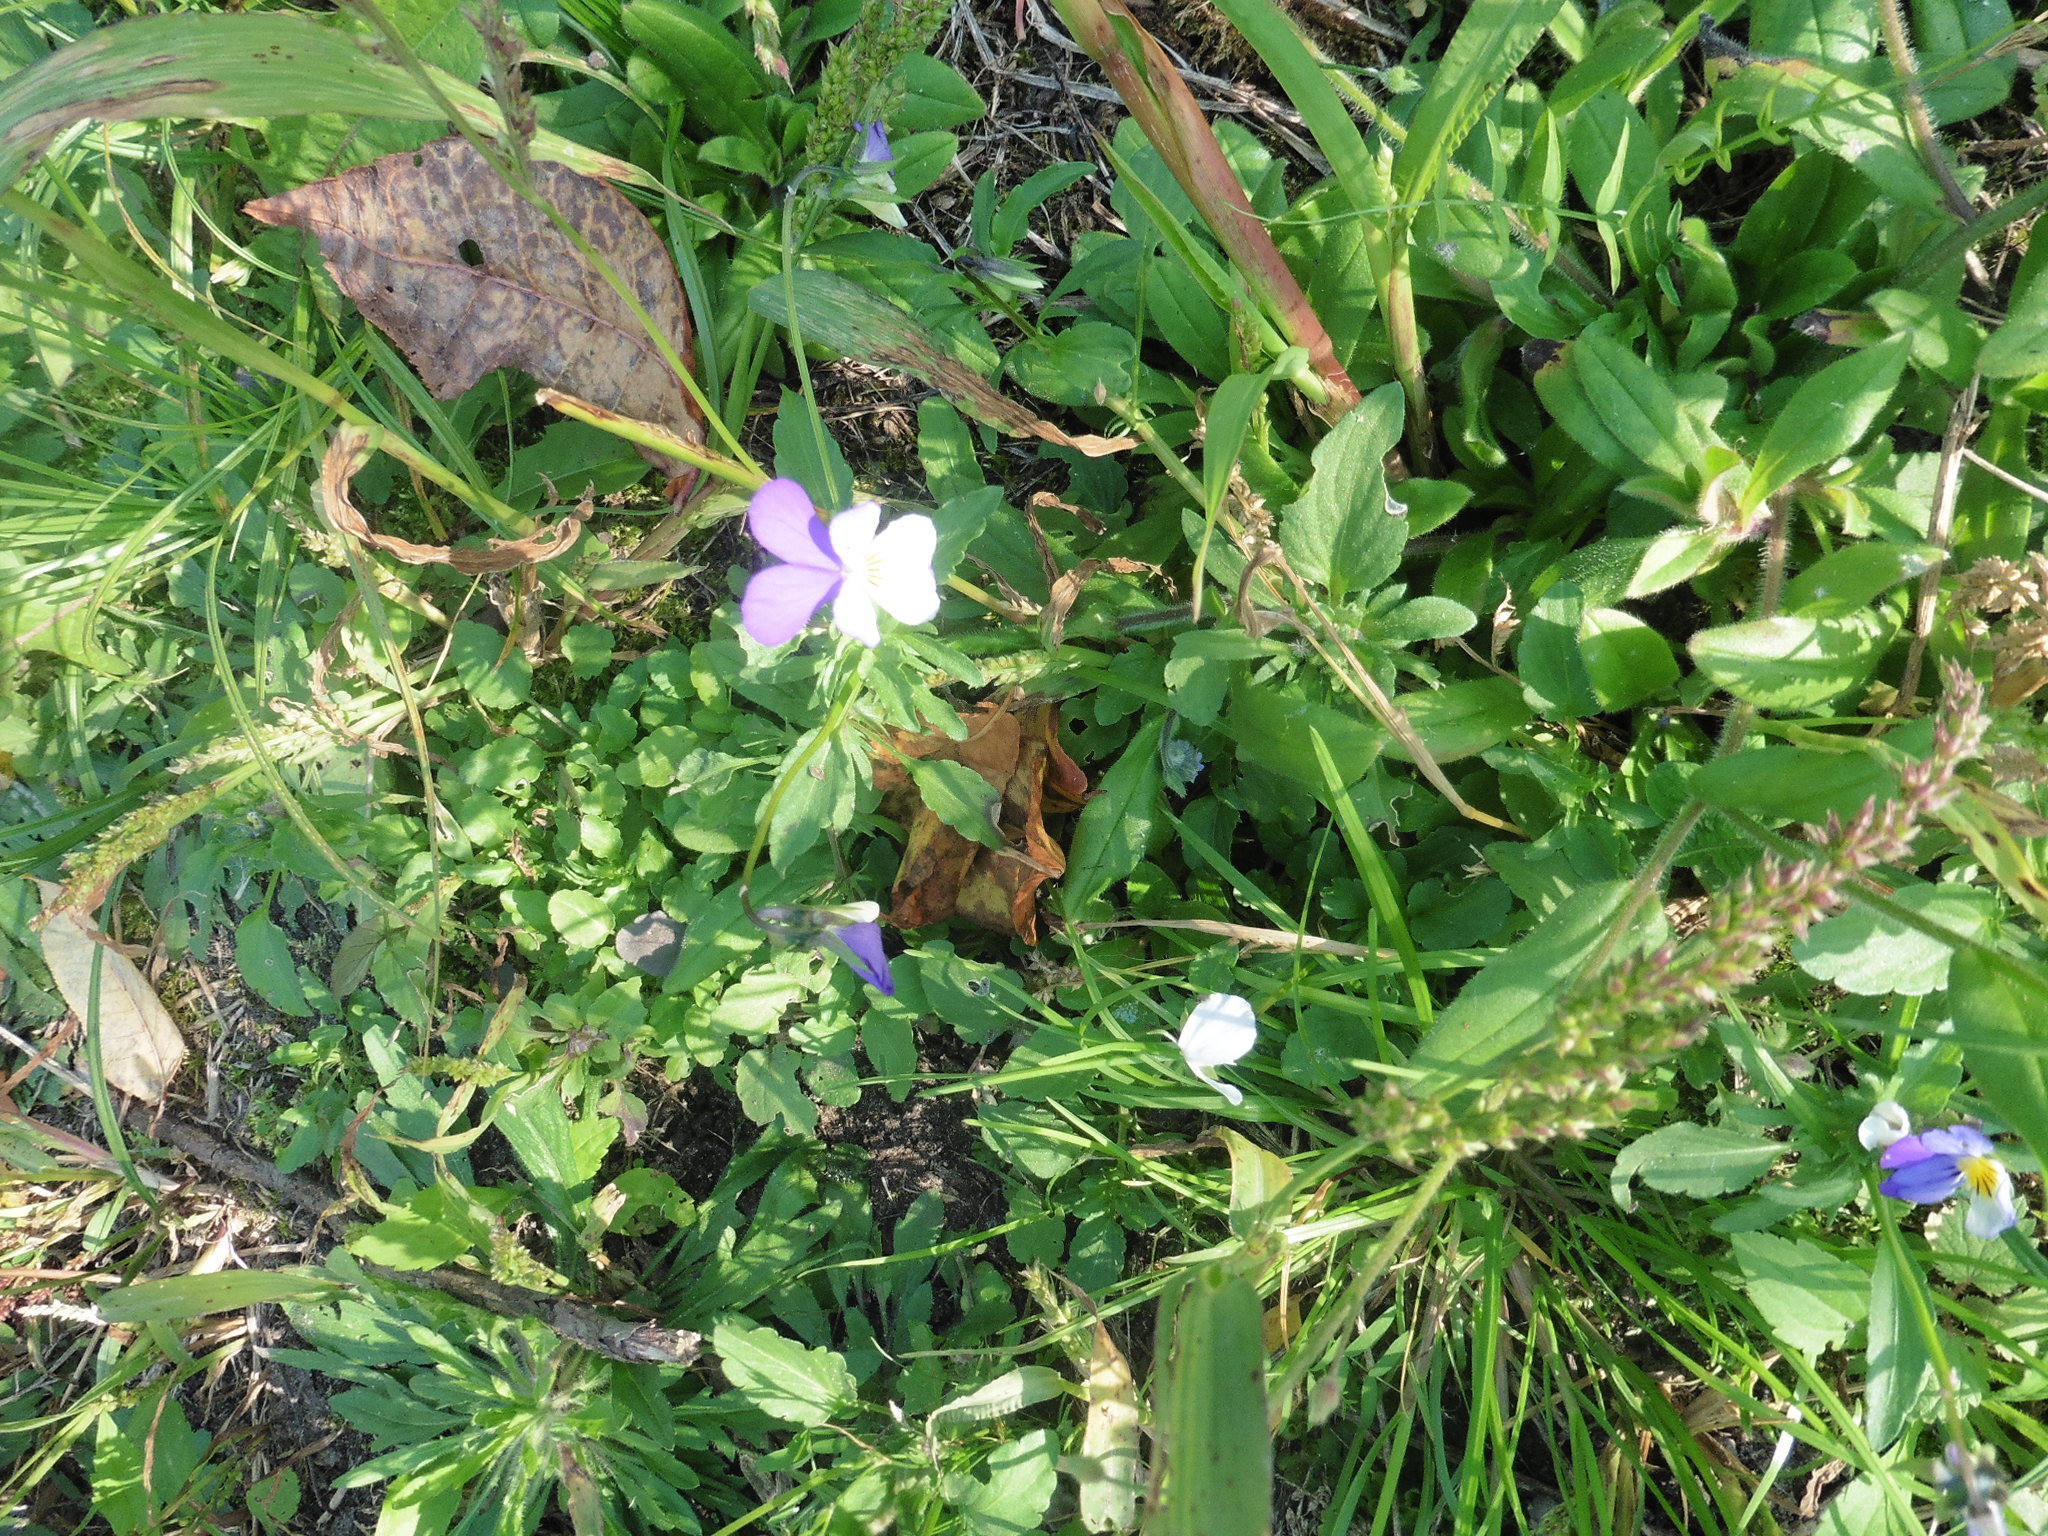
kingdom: Plantae
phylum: Tracheophyta
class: Magnoliopsida
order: Malpighiales
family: Violaceae
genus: Viola
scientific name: Viola tricolor
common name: Pansy
